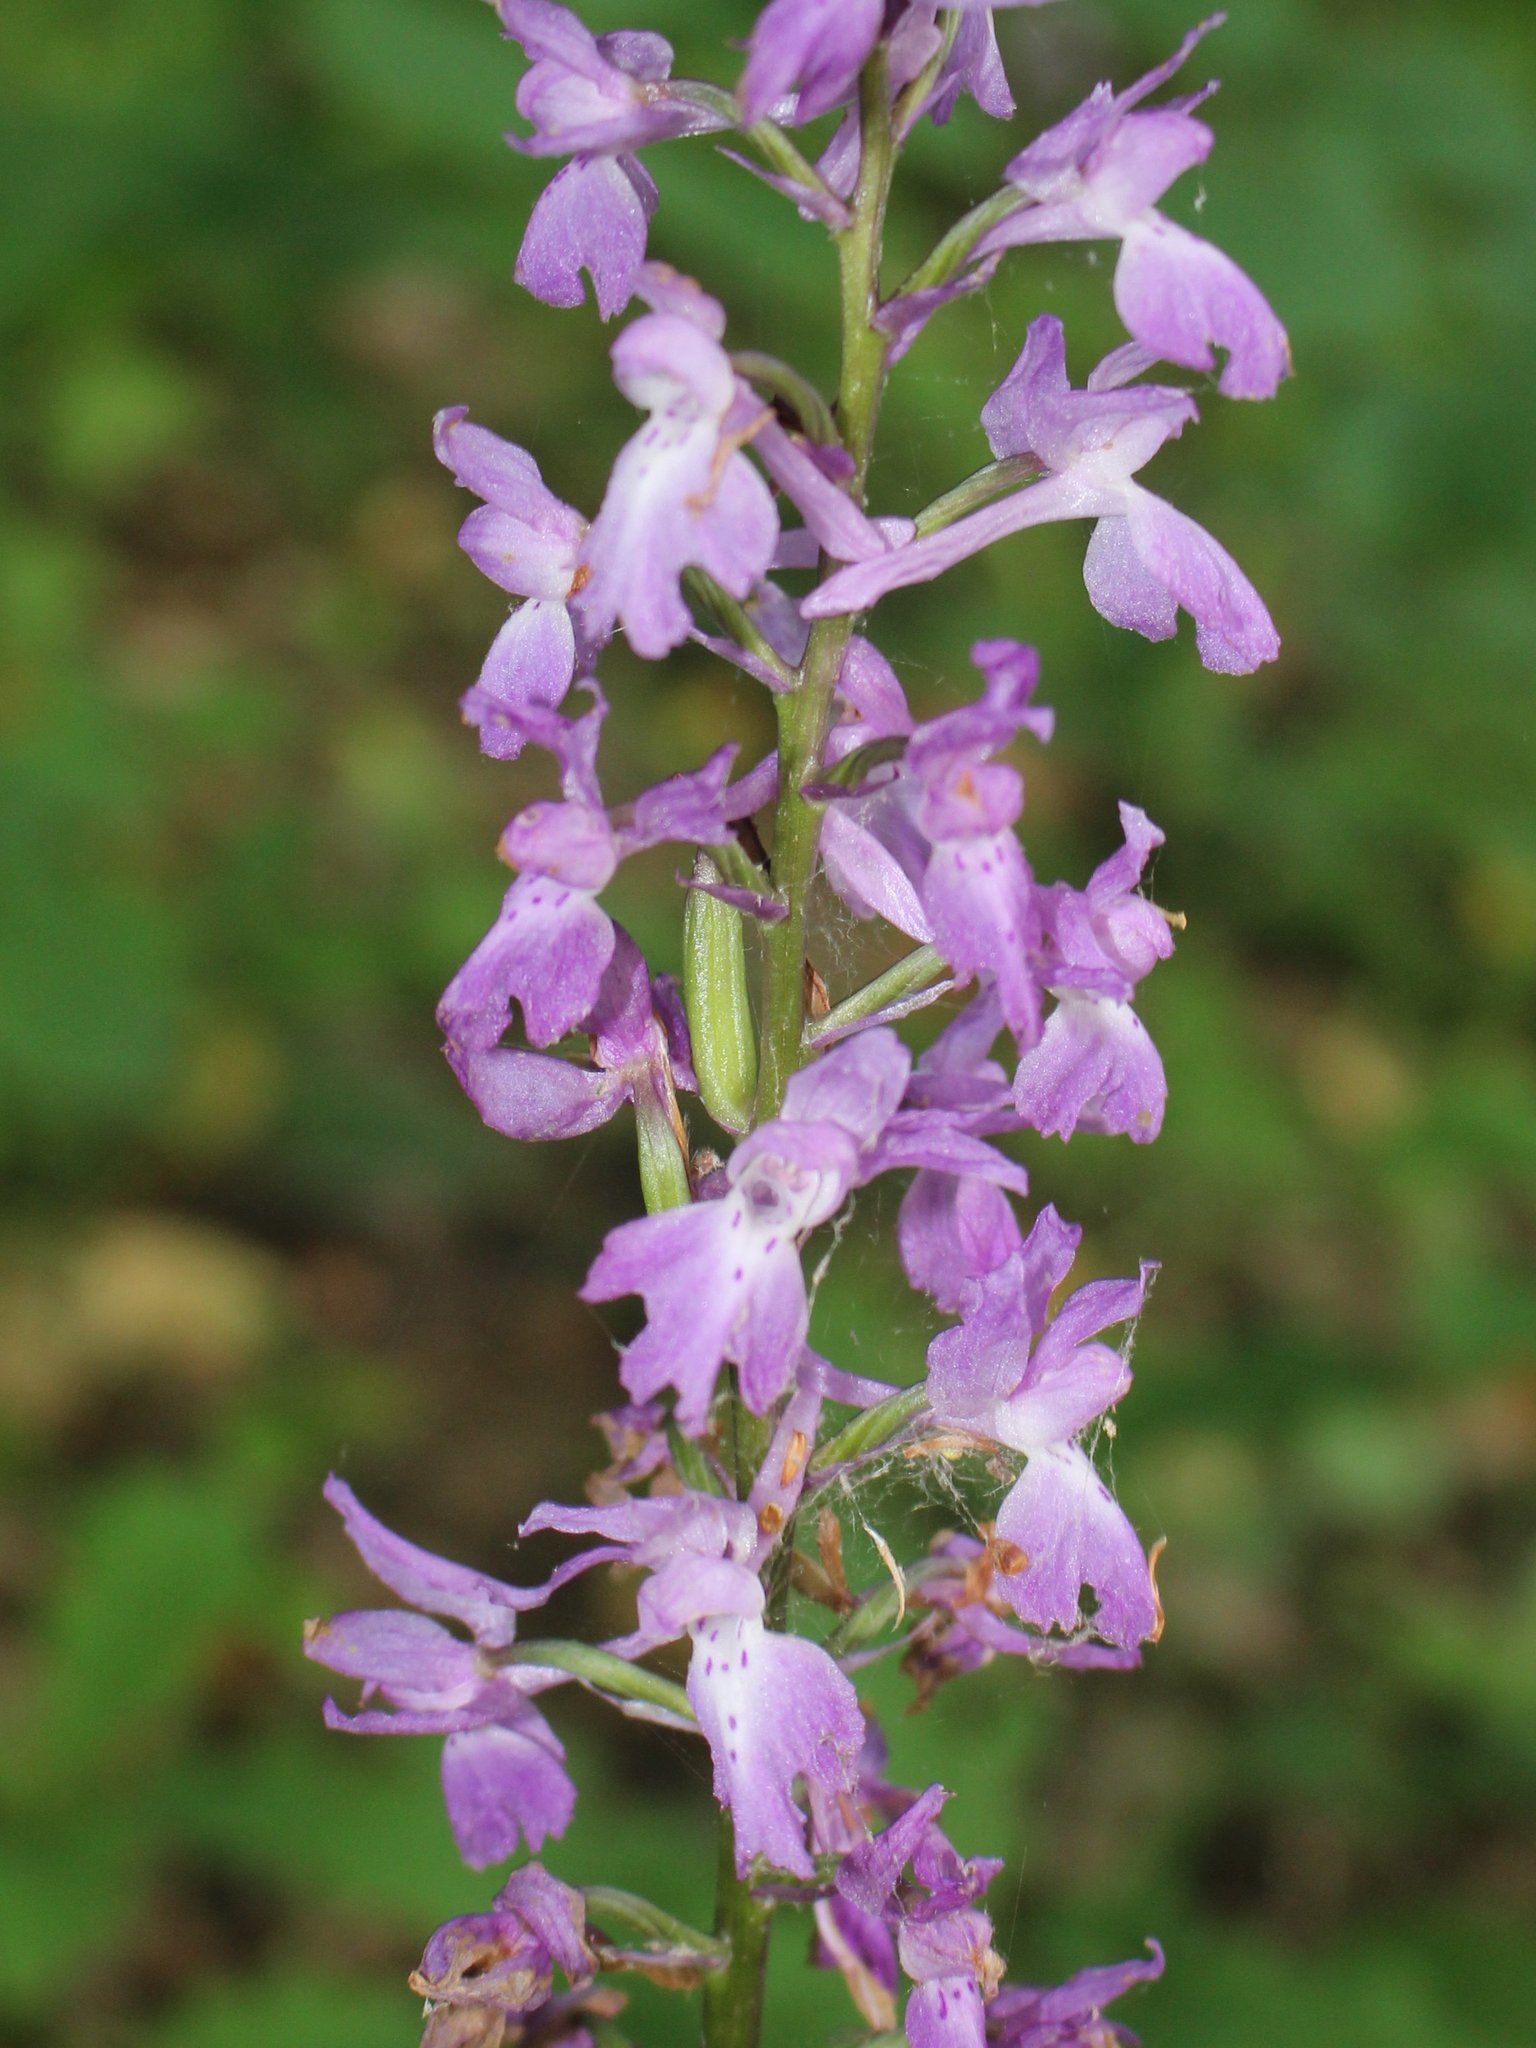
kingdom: Plantae
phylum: Tracheophyta
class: Liliopsida
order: Asparagales
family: Orchidaceae
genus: Orchis
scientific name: Orchis mascula
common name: Early-purple orchid
